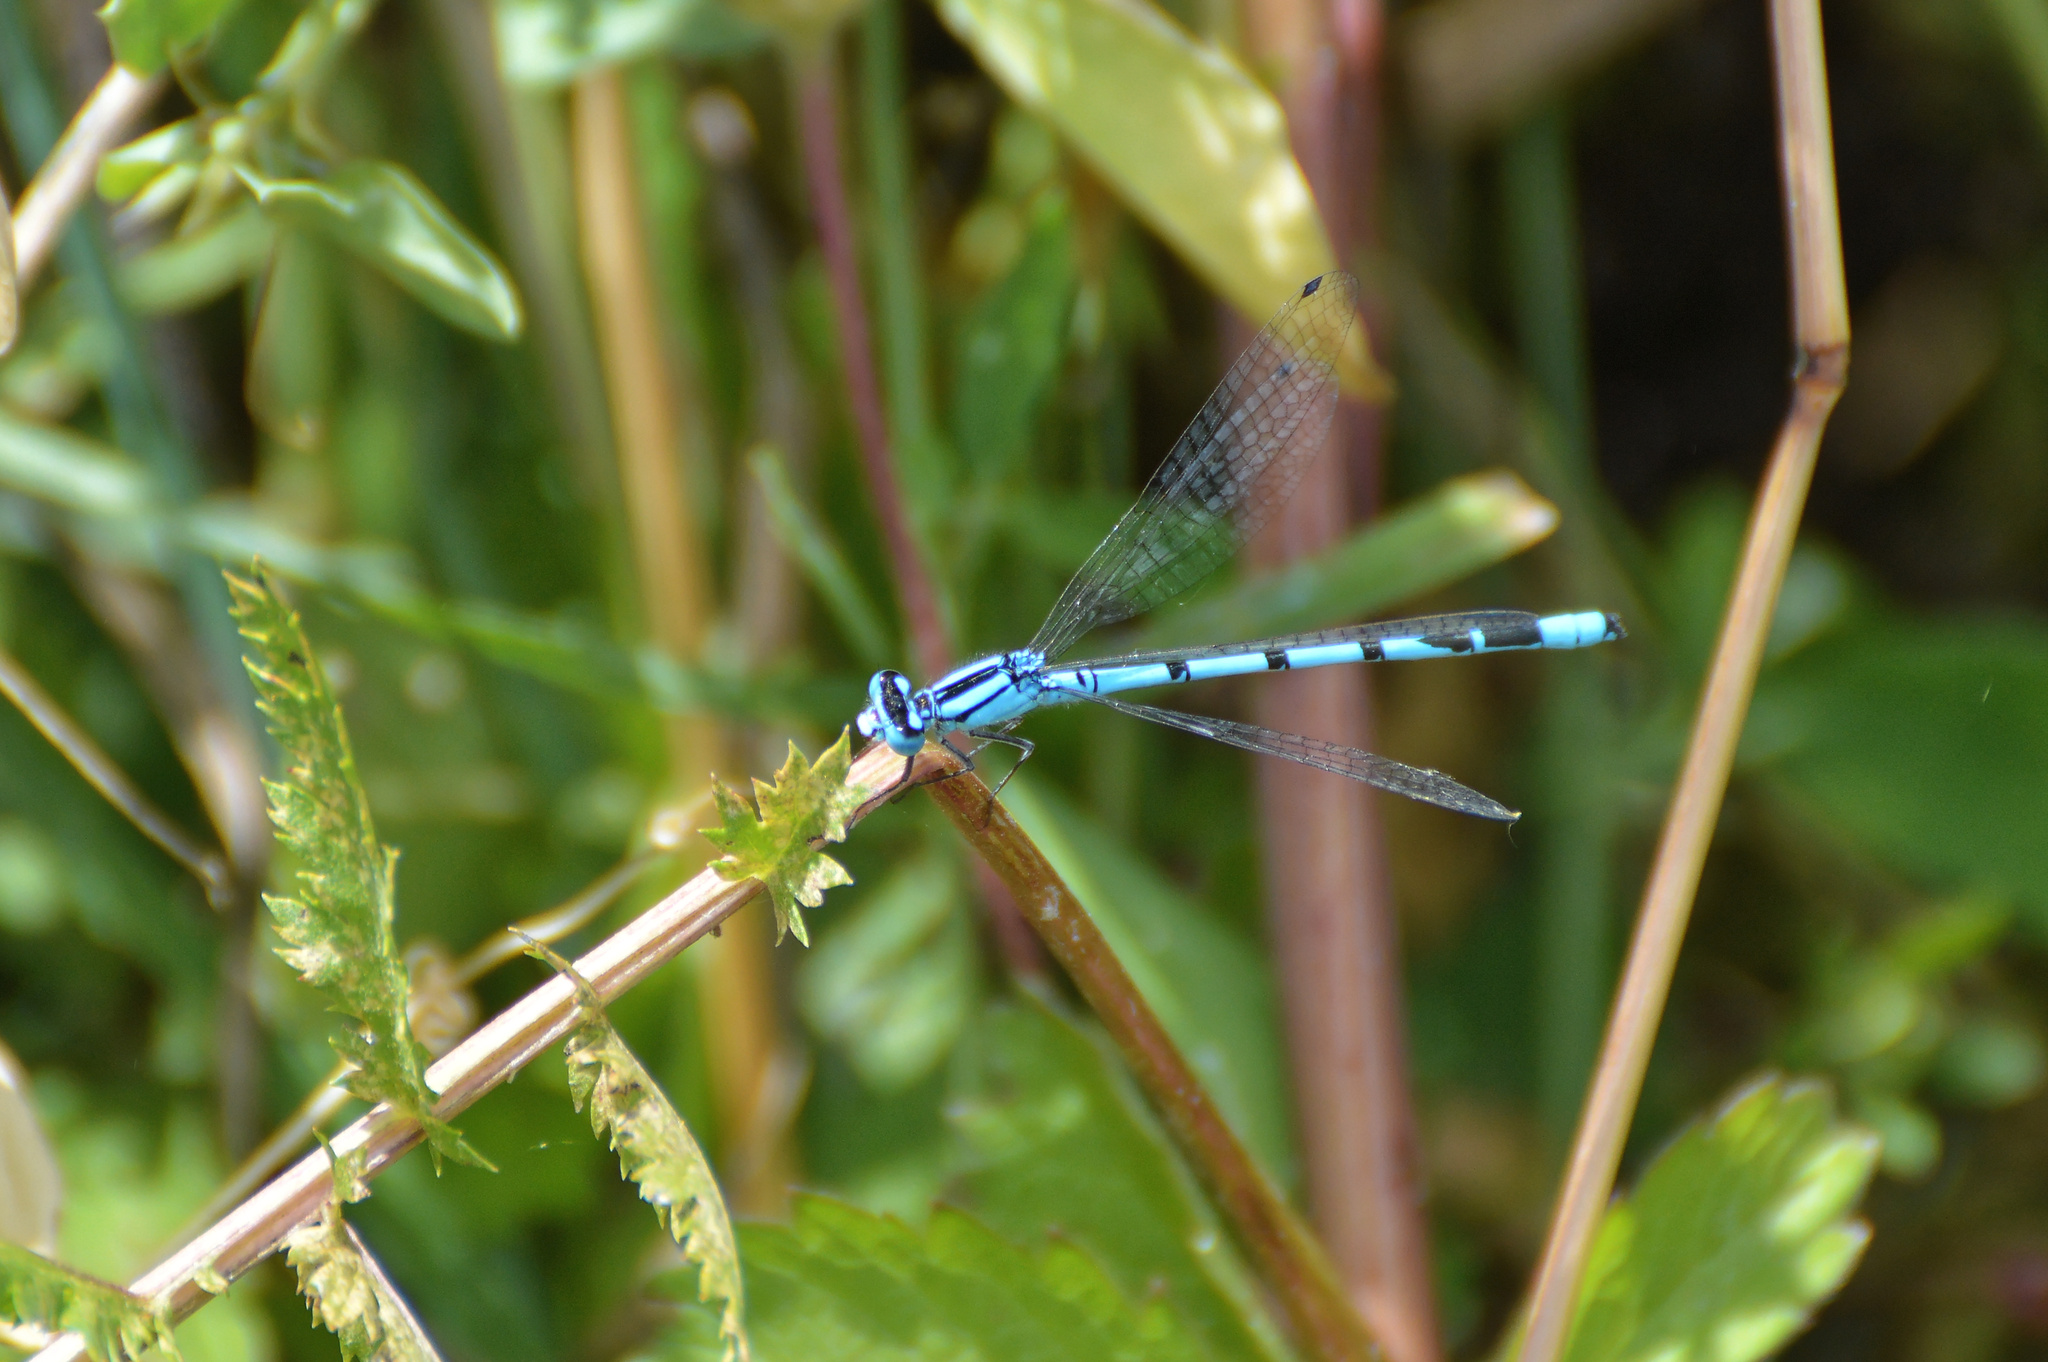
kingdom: Animalia
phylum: Arthropoda
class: Insecta
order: Odonata
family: Coenagrionidae
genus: Enallagma
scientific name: Enallagma cyathigerum
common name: Common blue damselfly
